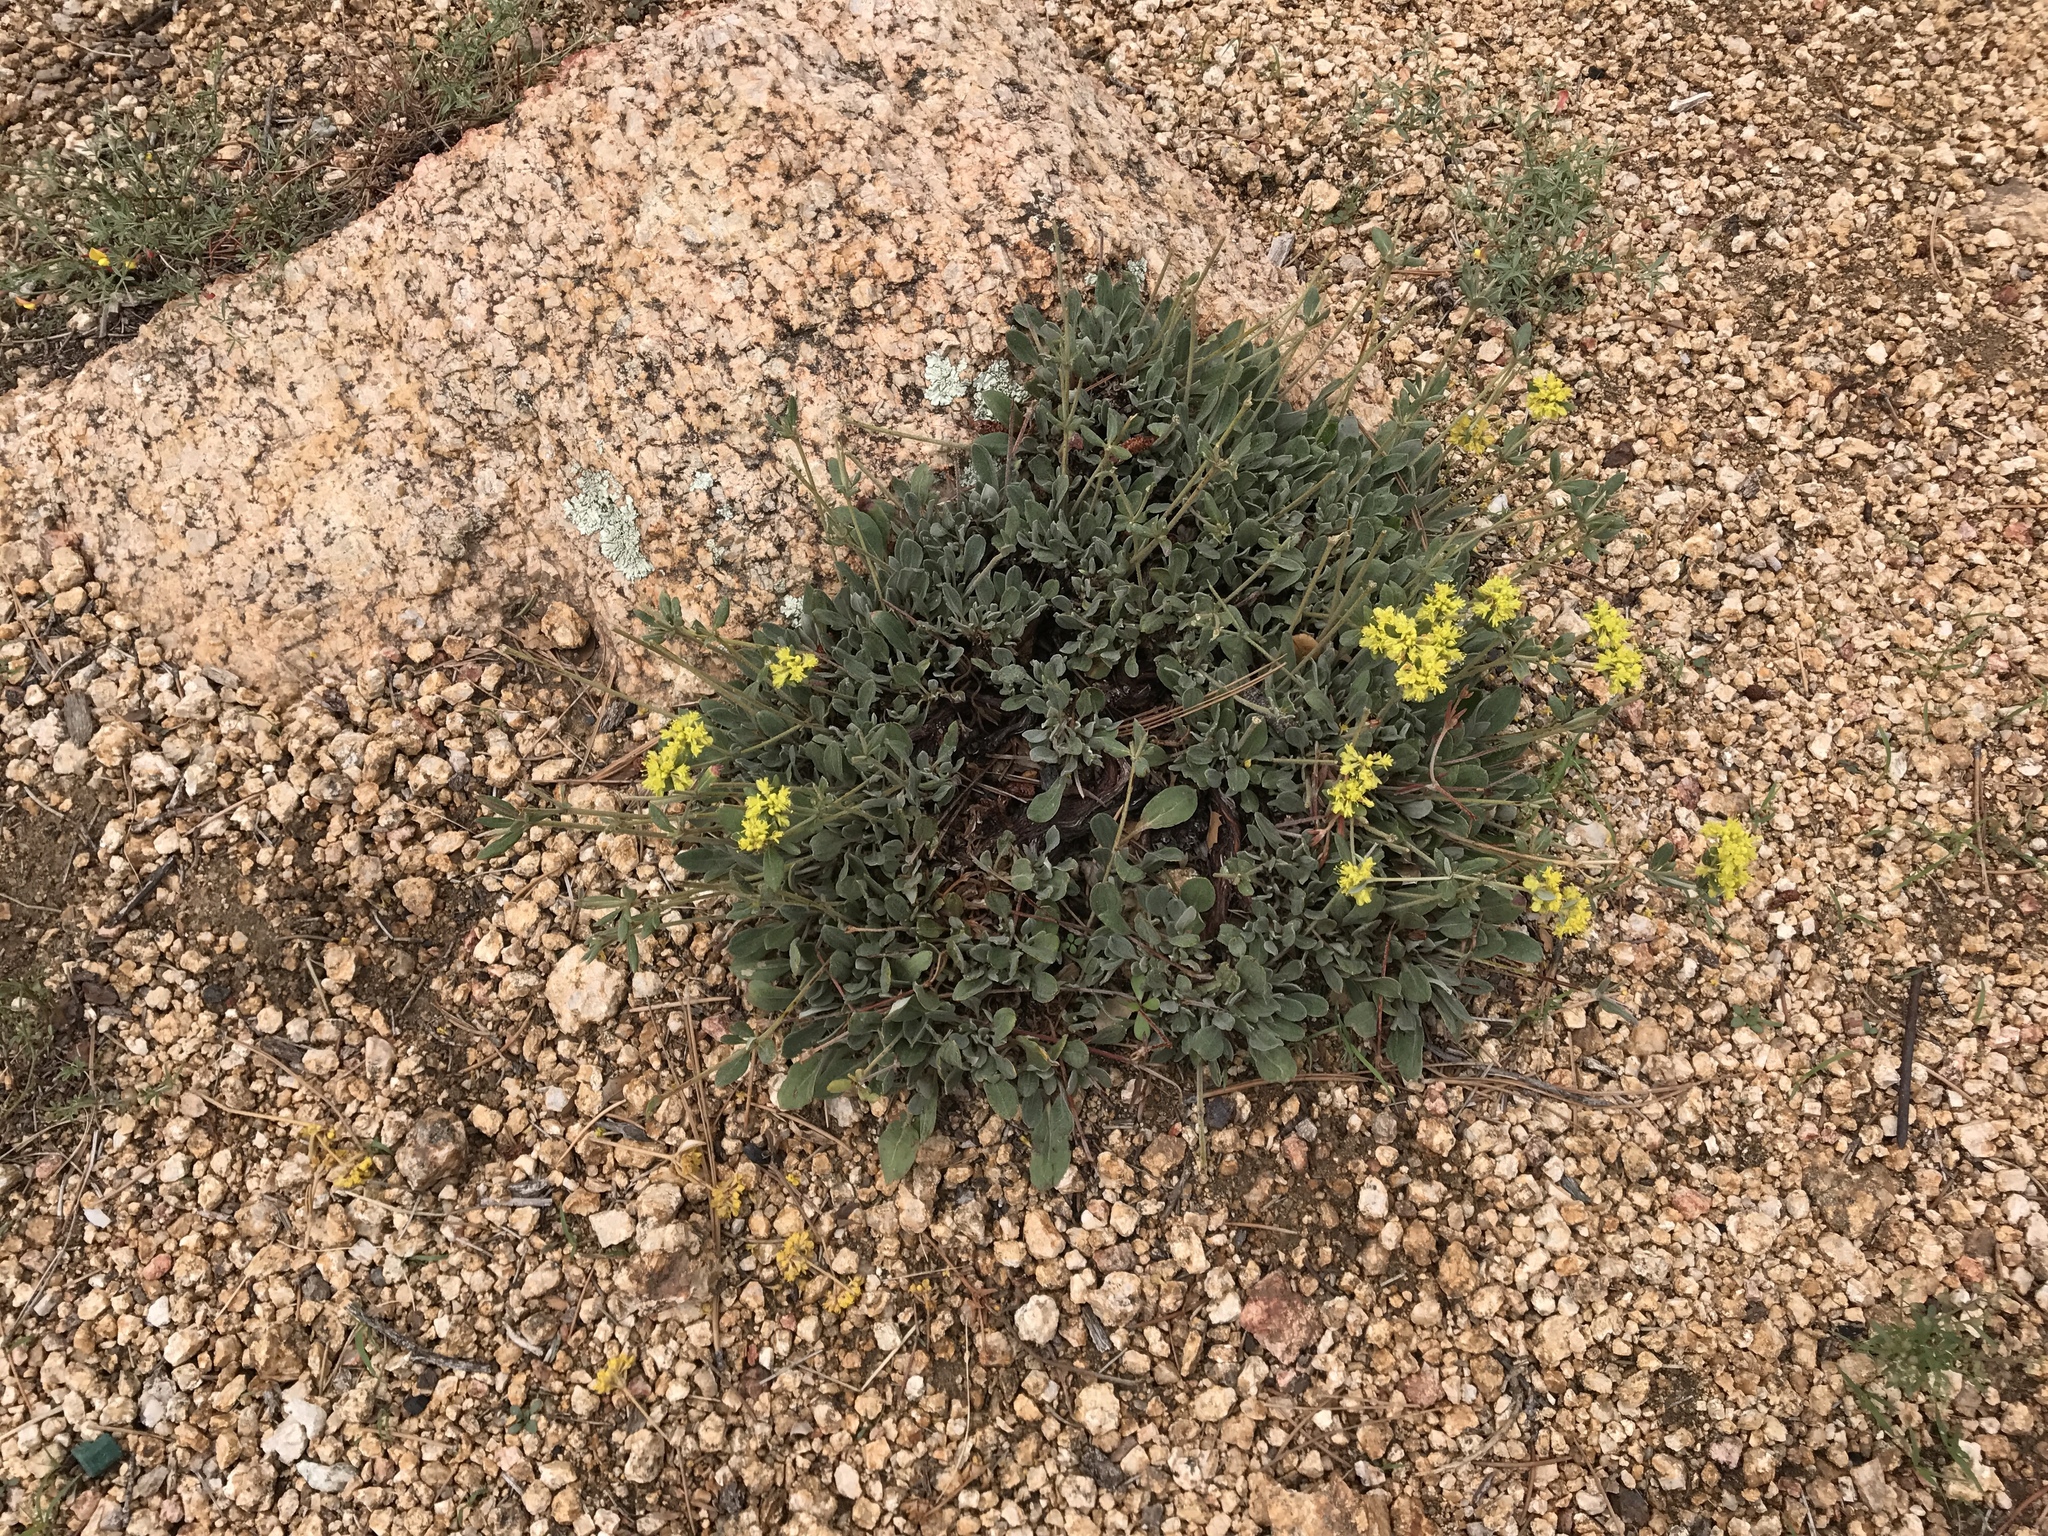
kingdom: Plantae
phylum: Tracheophyta
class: Magnoliopsida
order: Caryophyllales
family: Polygonaceae
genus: Eriogonum
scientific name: Eriogonum arcuatum
